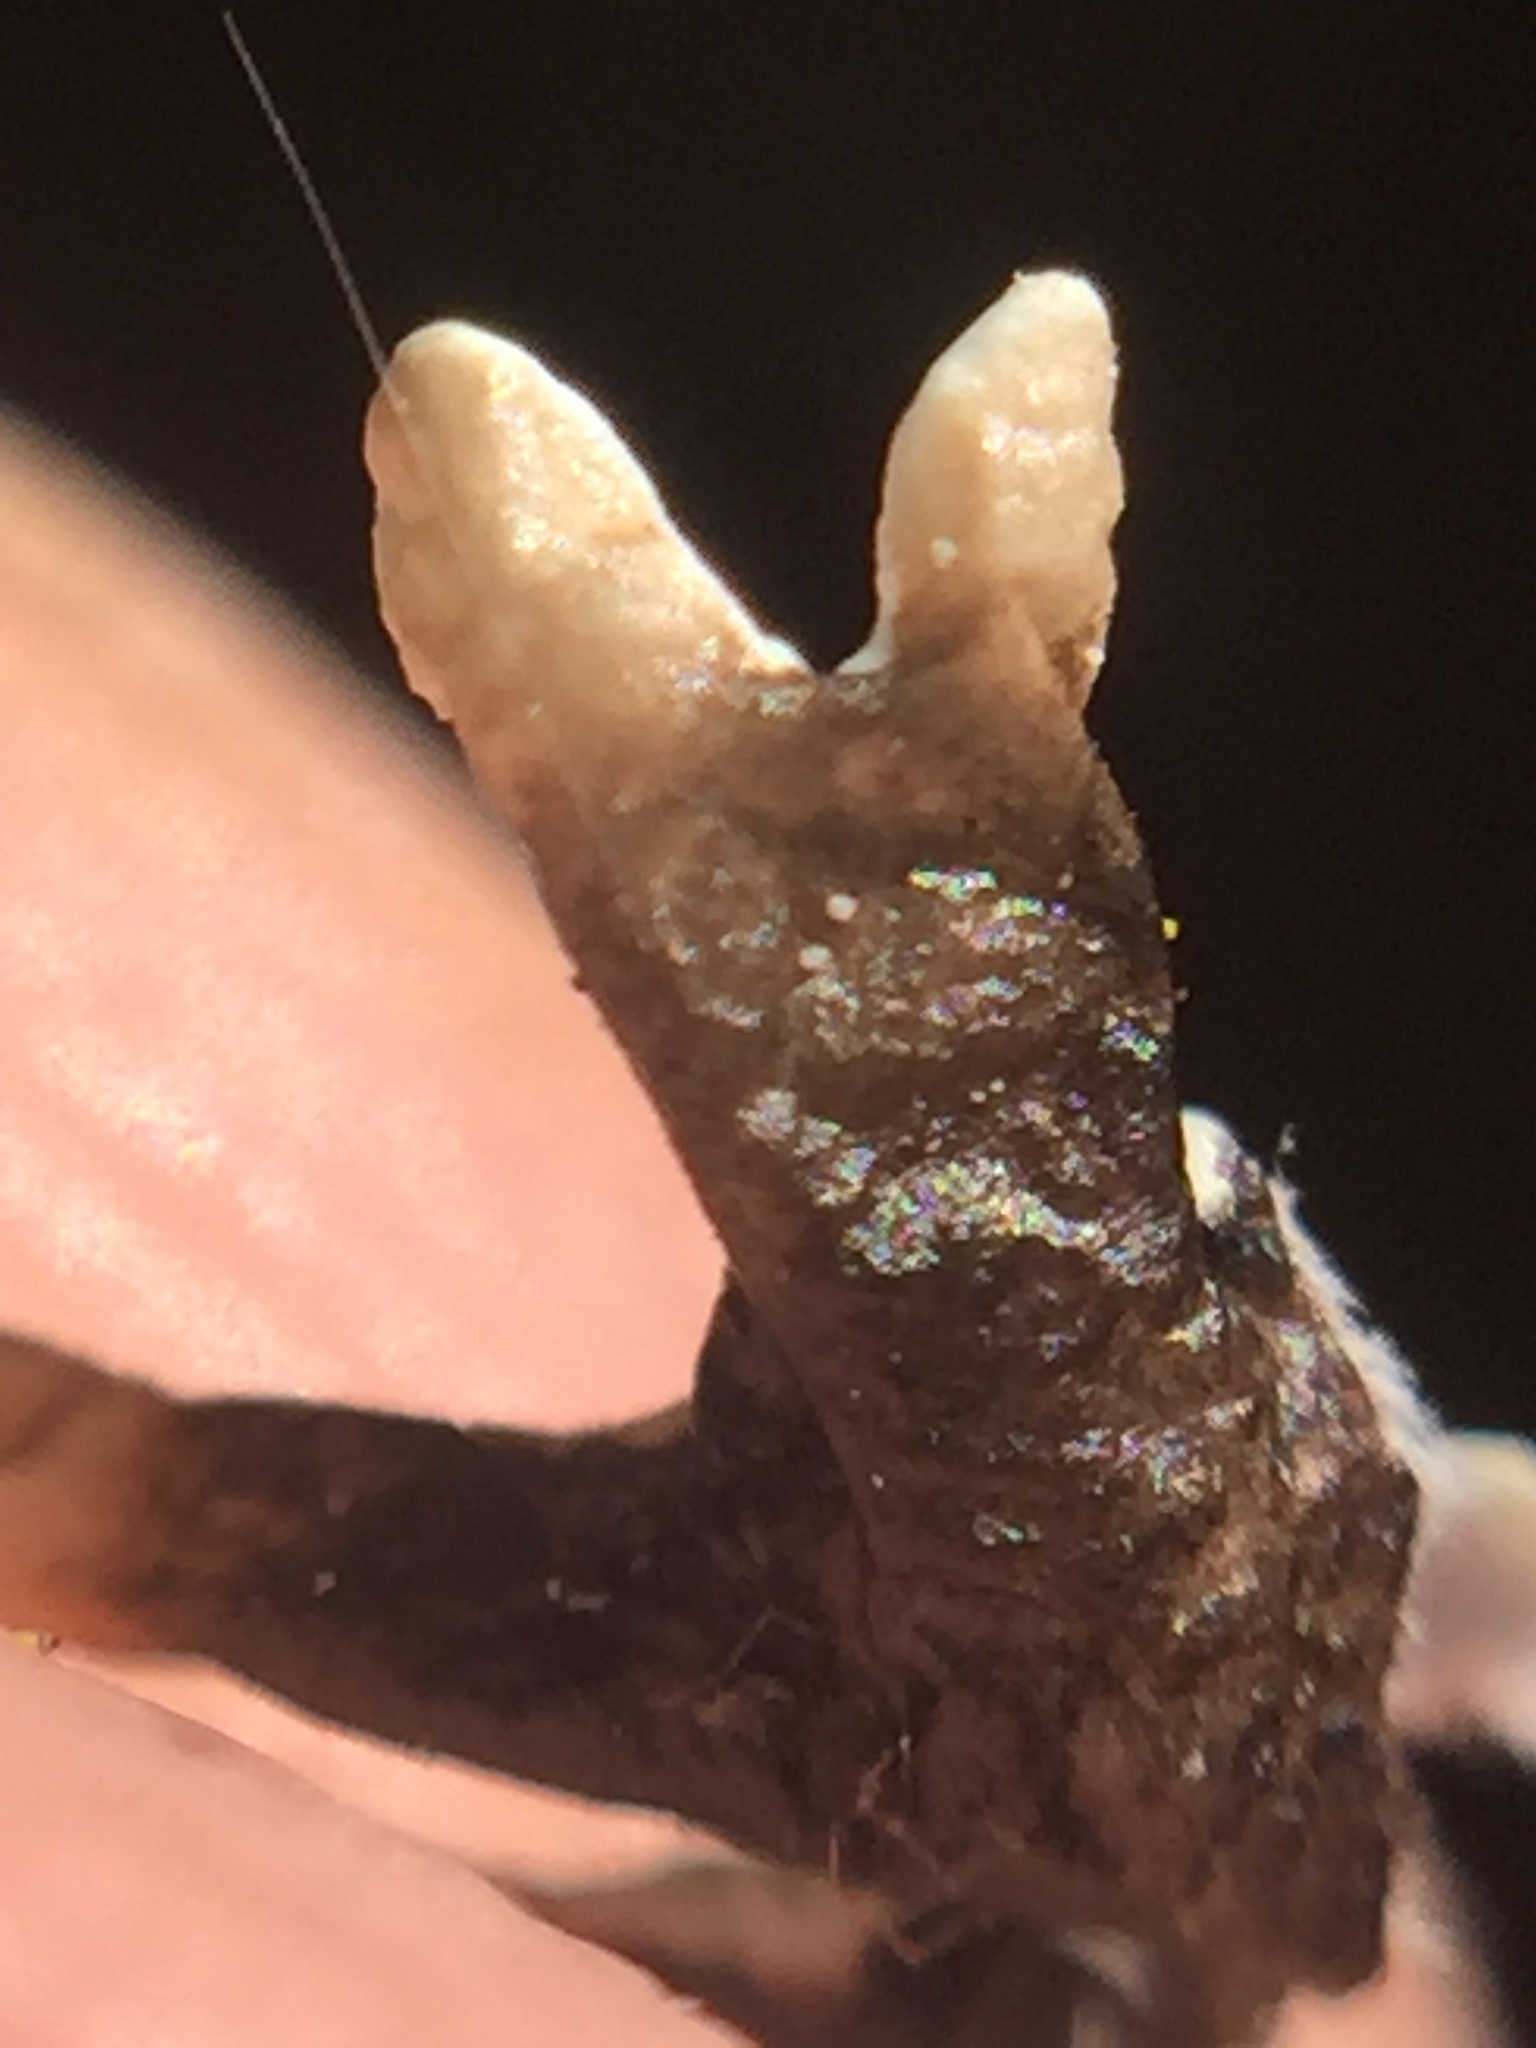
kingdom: Fungi
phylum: Ascomycota
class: Lecanoromycetes
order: Lecanorales
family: Parmeliaceae
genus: Hypogymnia
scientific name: Hypogymnia subphysodes
